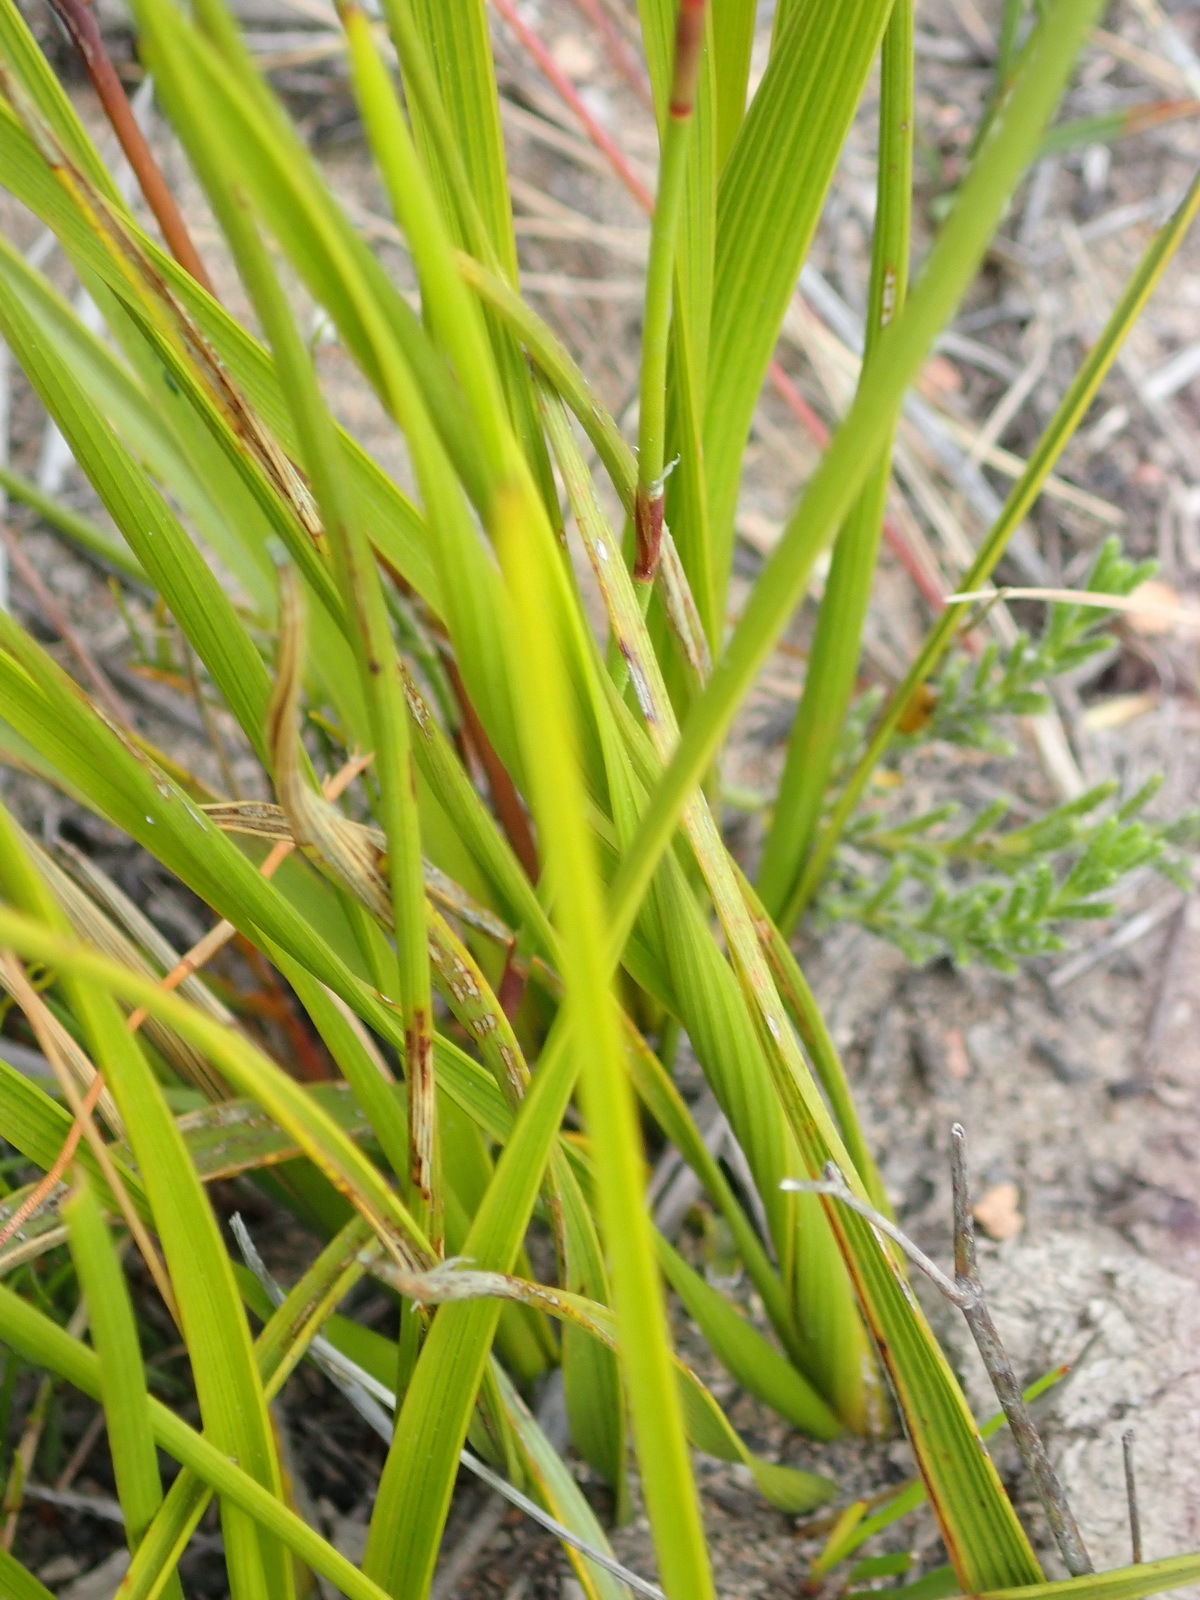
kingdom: Plantae
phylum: Tracheophyta
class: Magnoliopsida
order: Asterales
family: Asteraceae
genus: Corymbium
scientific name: Corymbium glabrum
